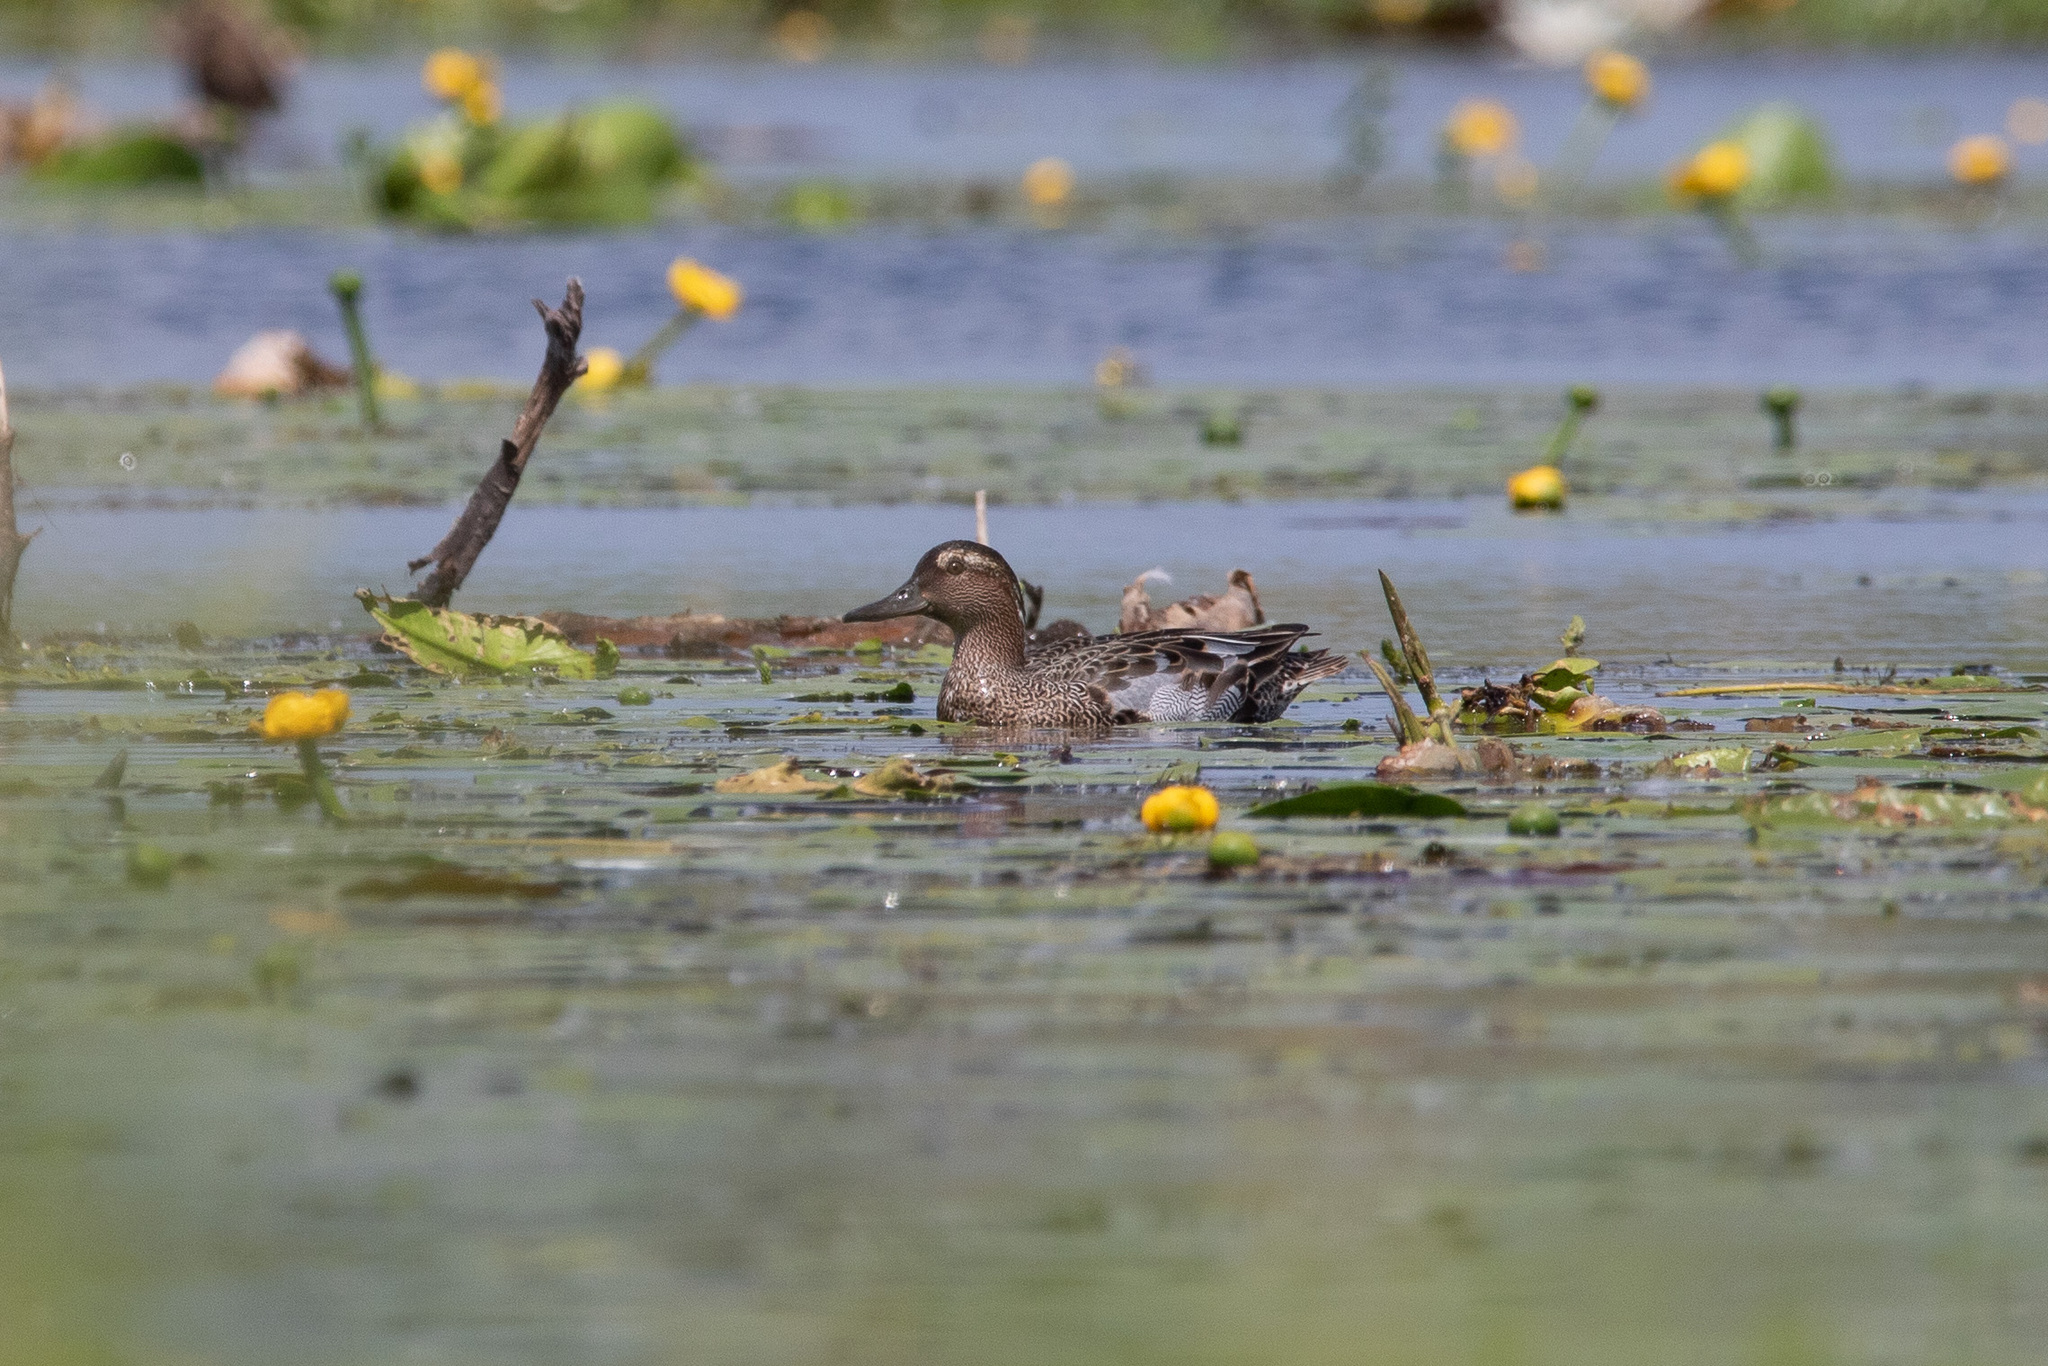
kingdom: Animalia
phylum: Chordata
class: Aves
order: Anseriformes
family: Anatidae
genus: Spatula
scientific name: Spatula querquedula
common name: Garganey
